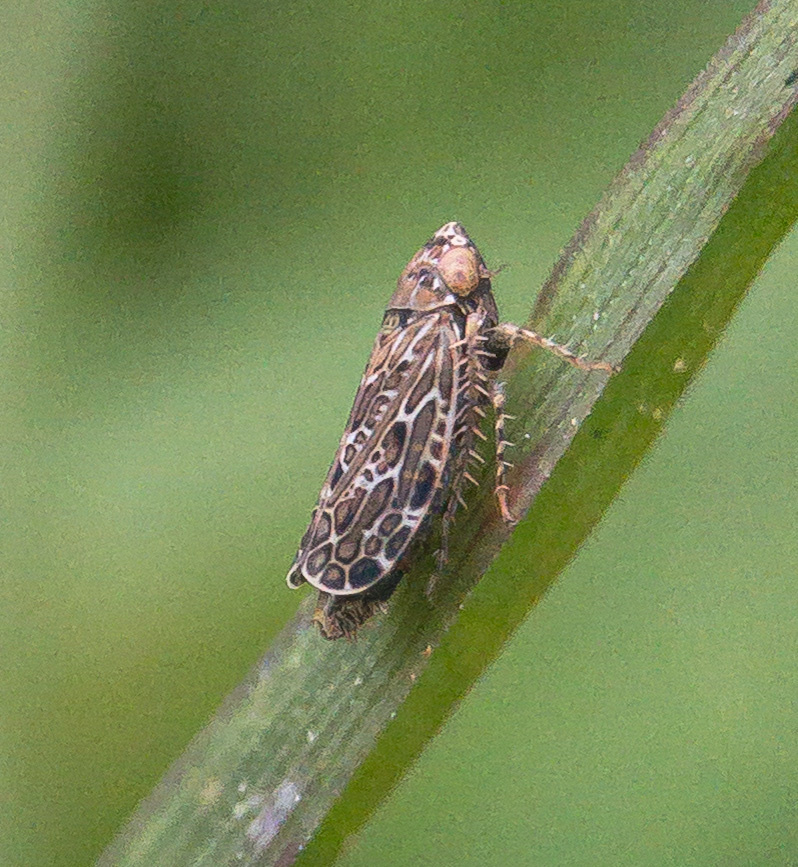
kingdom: Animalia
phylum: Arthropoda
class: Insecta
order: Hemiptera
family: Cicadellidae
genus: Polyamia
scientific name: Polyamia weedi
